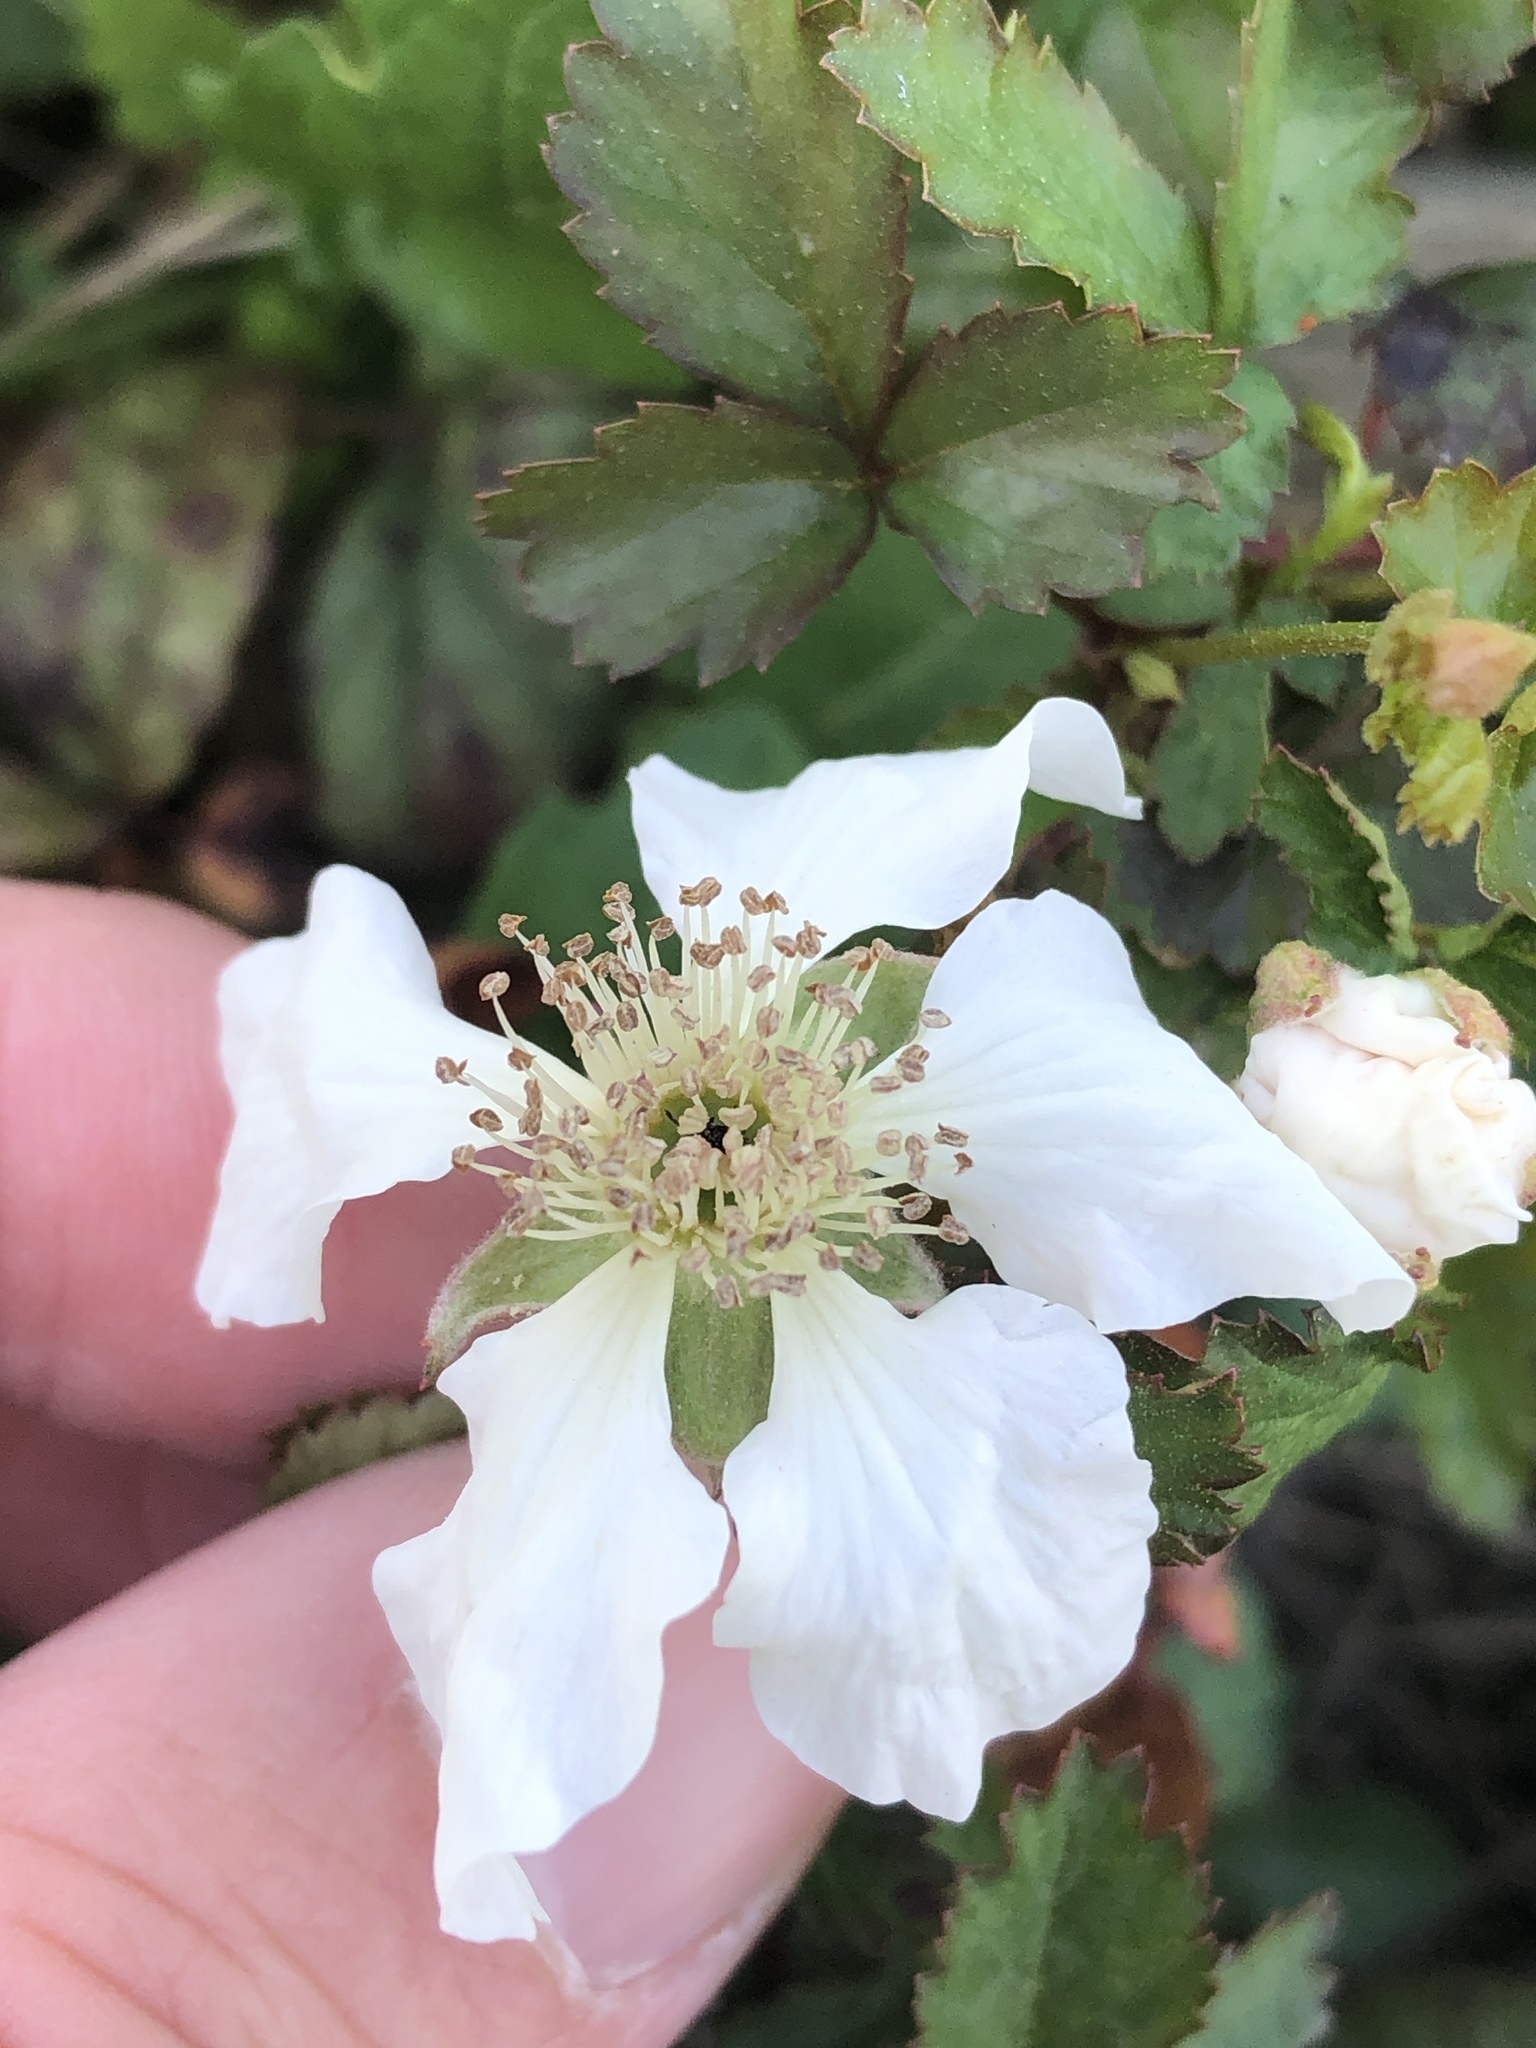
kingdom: Plantae
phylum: Tracheophyta
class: Magnoliopsida
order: Rosales
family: Rosaceae
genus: Rubus
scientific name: Rubus trivialis
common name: Southern dewberry
